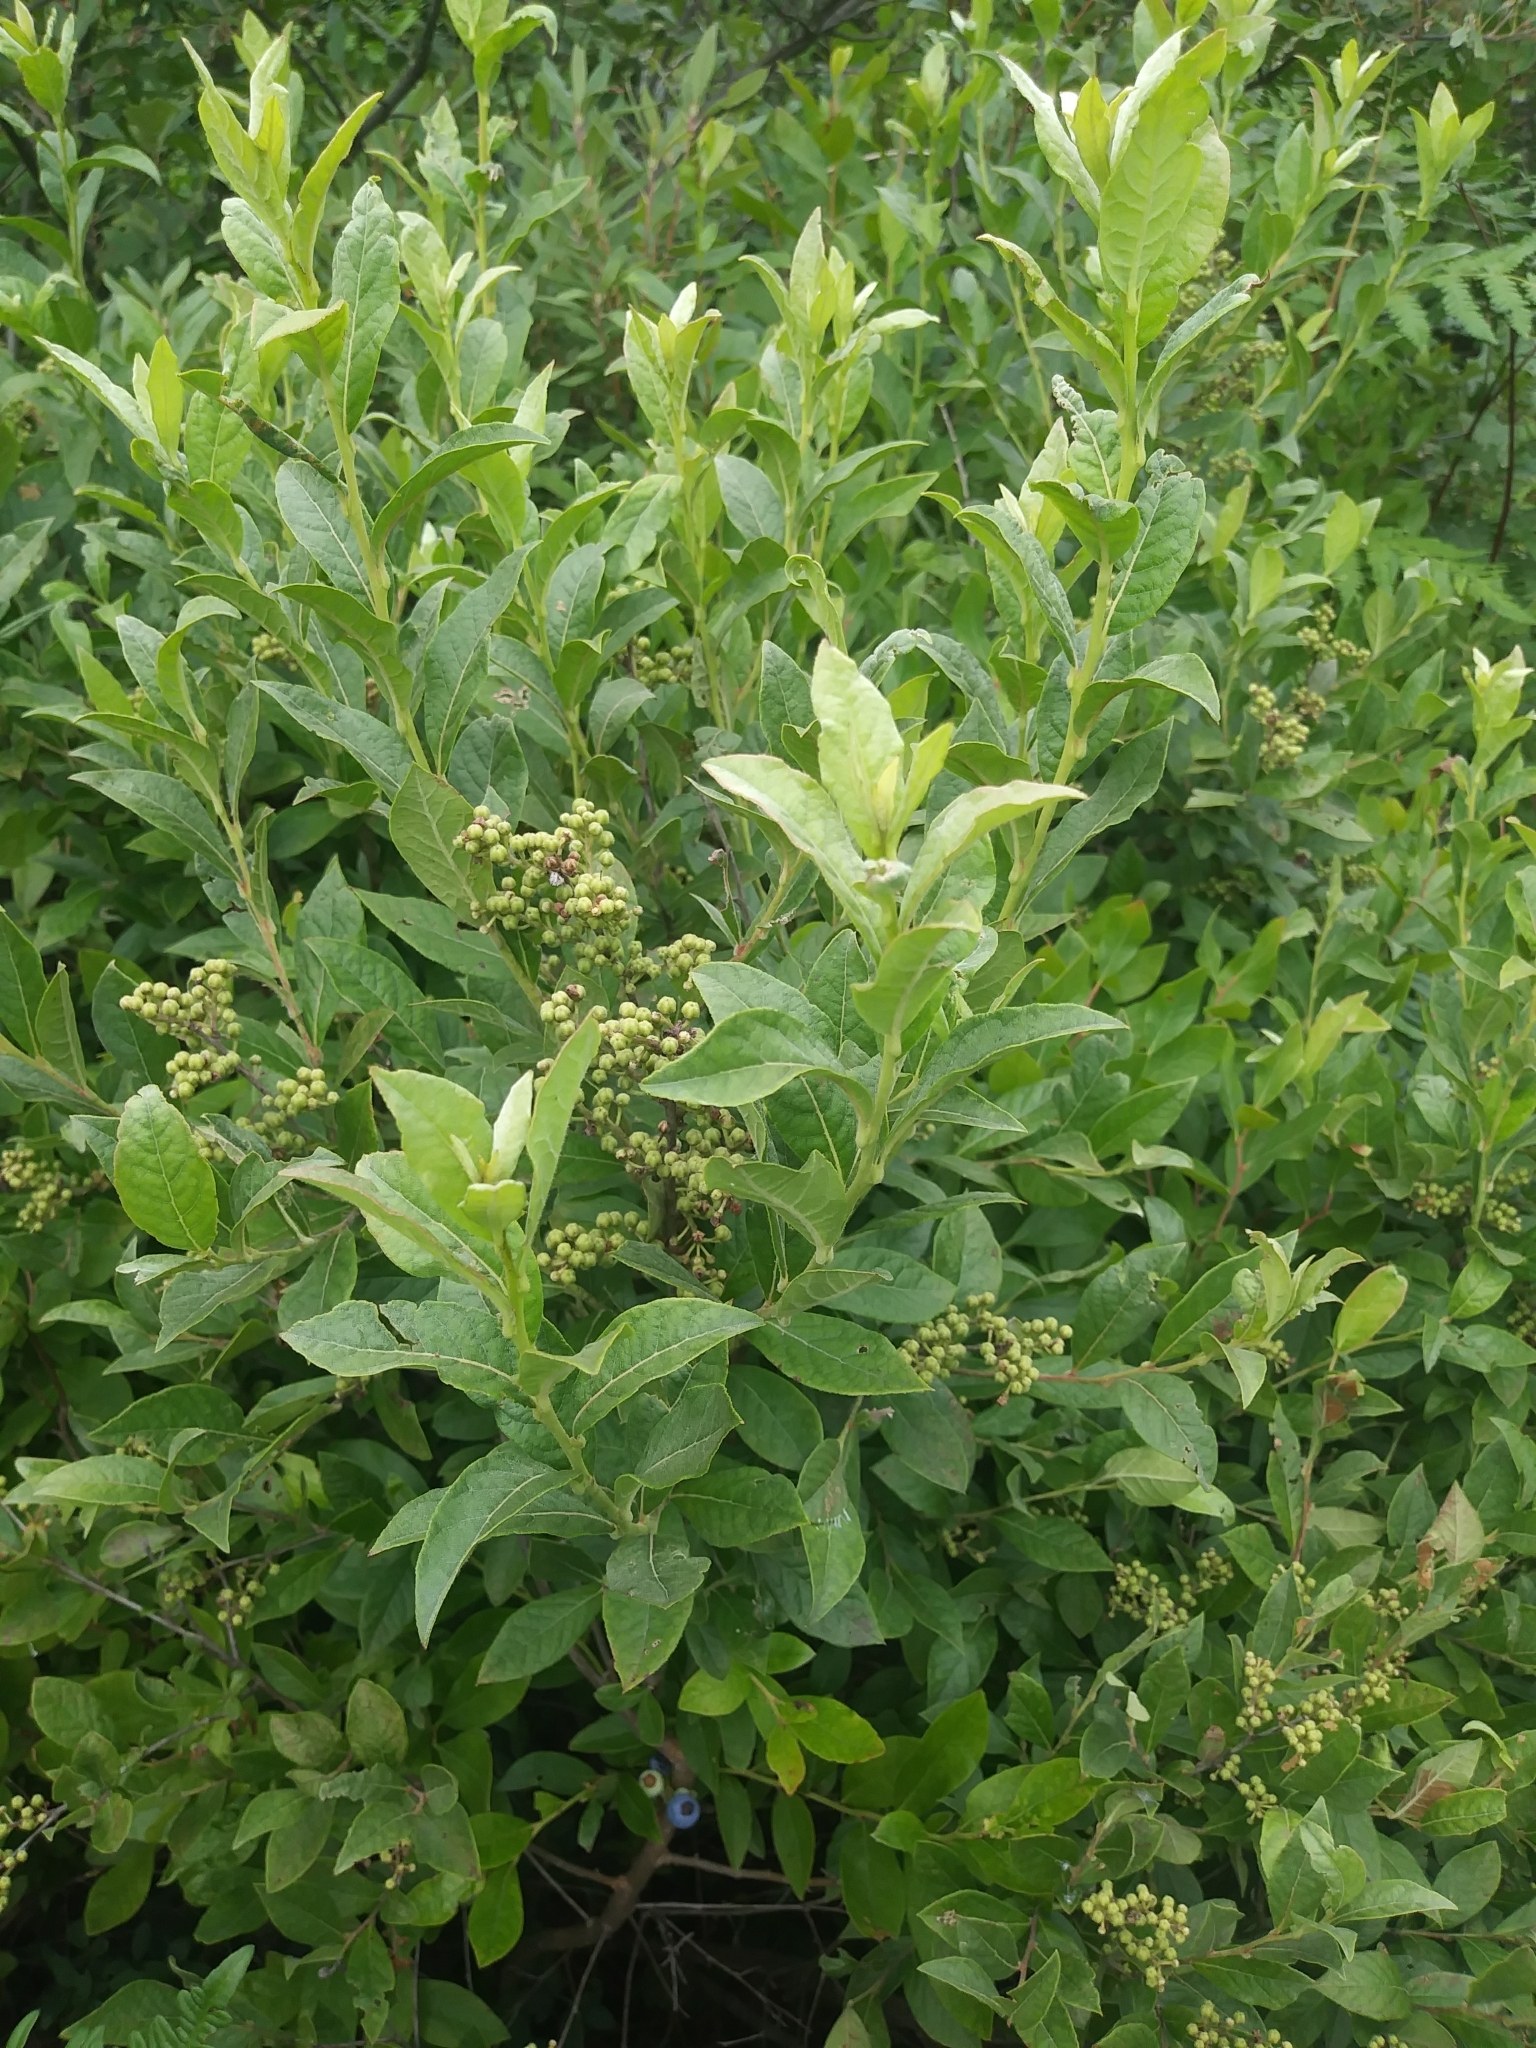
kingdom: Plantae
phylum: Tracheophyta
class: Magnoliopsida
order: Ericales
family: Ericaceae
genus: Lyonia
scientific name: Lyonia ligustrina
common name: Maleberry
